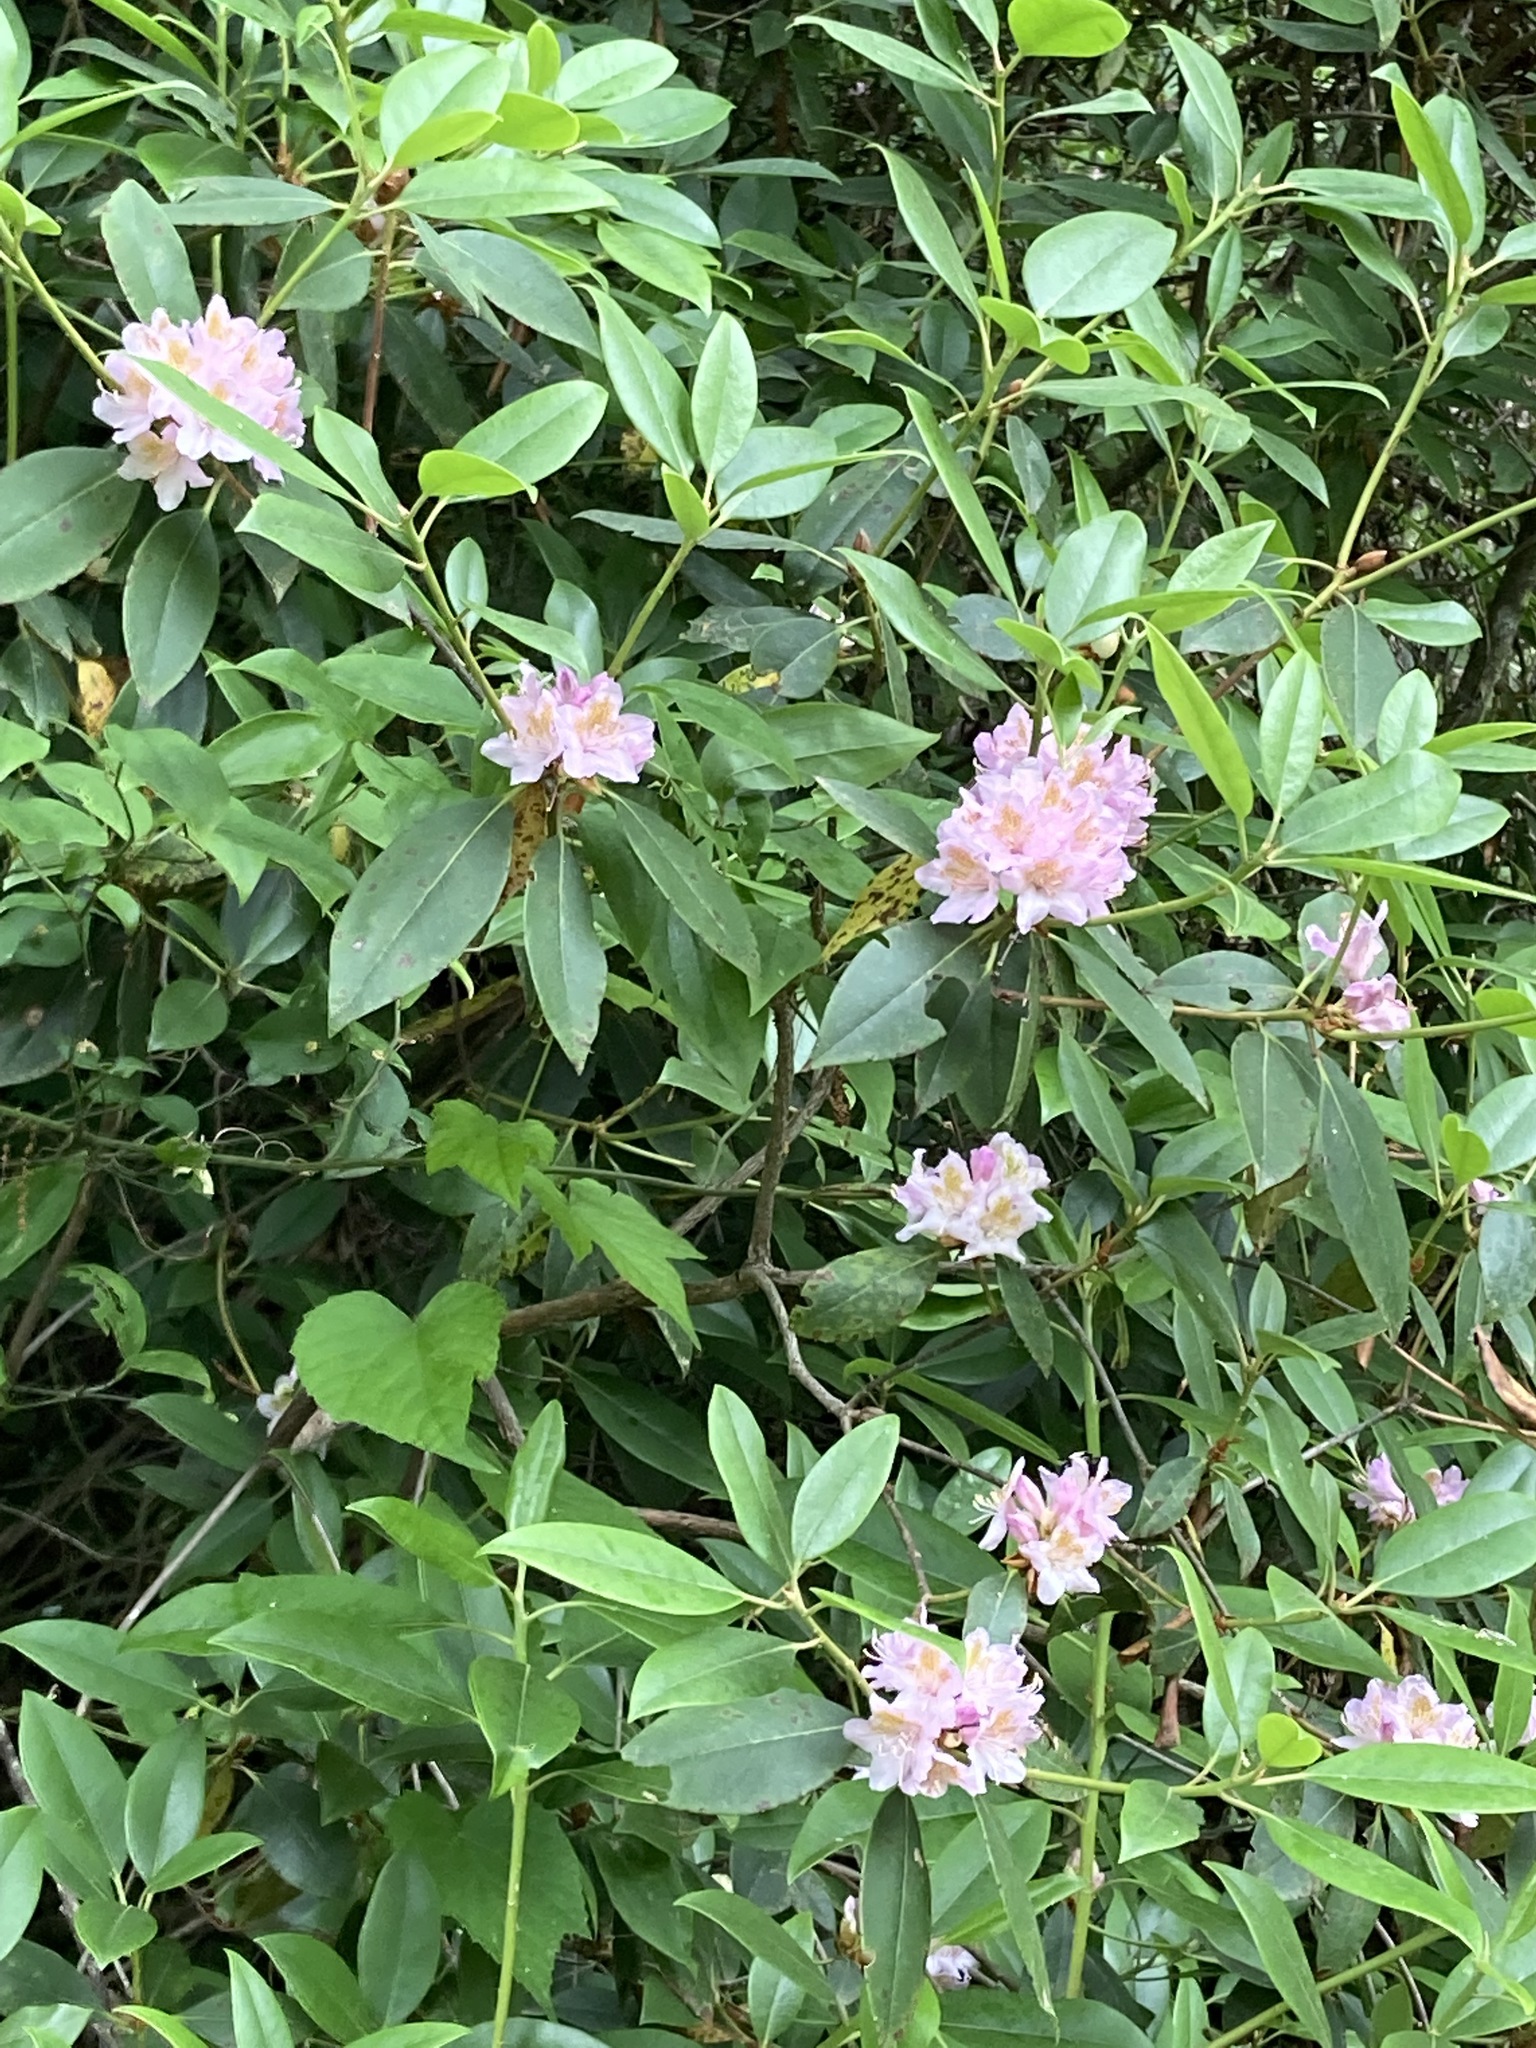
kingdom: Plantae
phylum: Tracheophyta
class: Magnoliopsida
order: Ericales
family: Ericaceae
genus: Rhododendron
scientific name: Rhododendron catawbiense
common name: Catawba rhododendron
